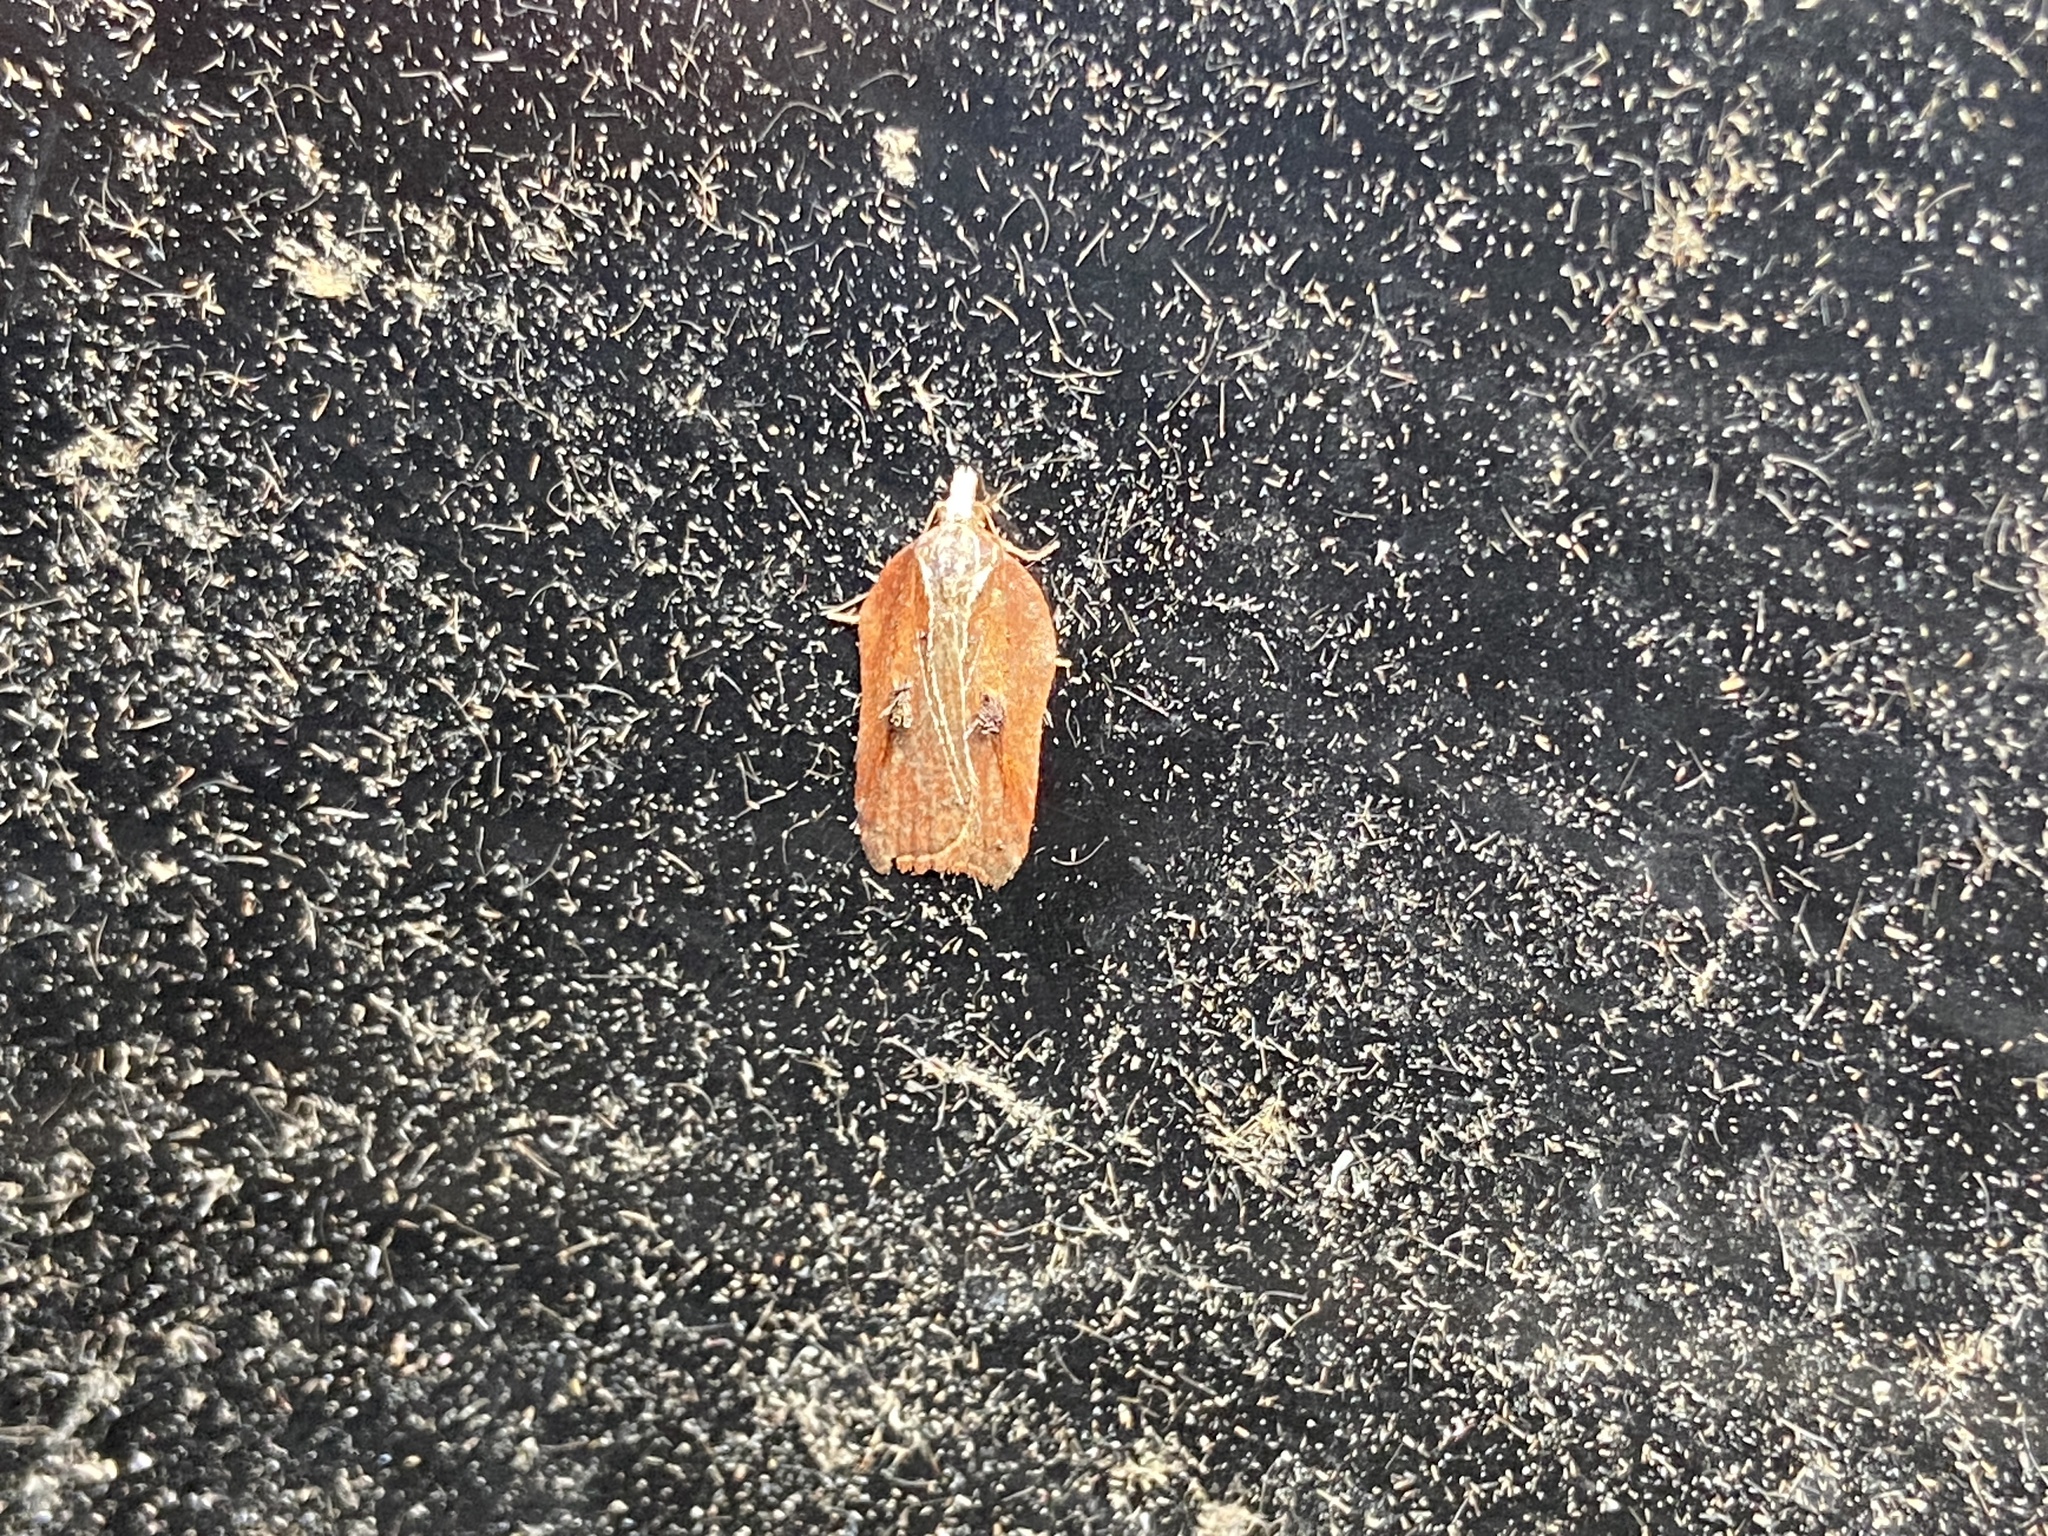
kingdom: Animalia
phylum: Arthropoda
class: Insecta
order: Lepidoptera
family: Tortricidae
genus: Acleris
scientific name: Acleris cristana
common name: Tufted button
